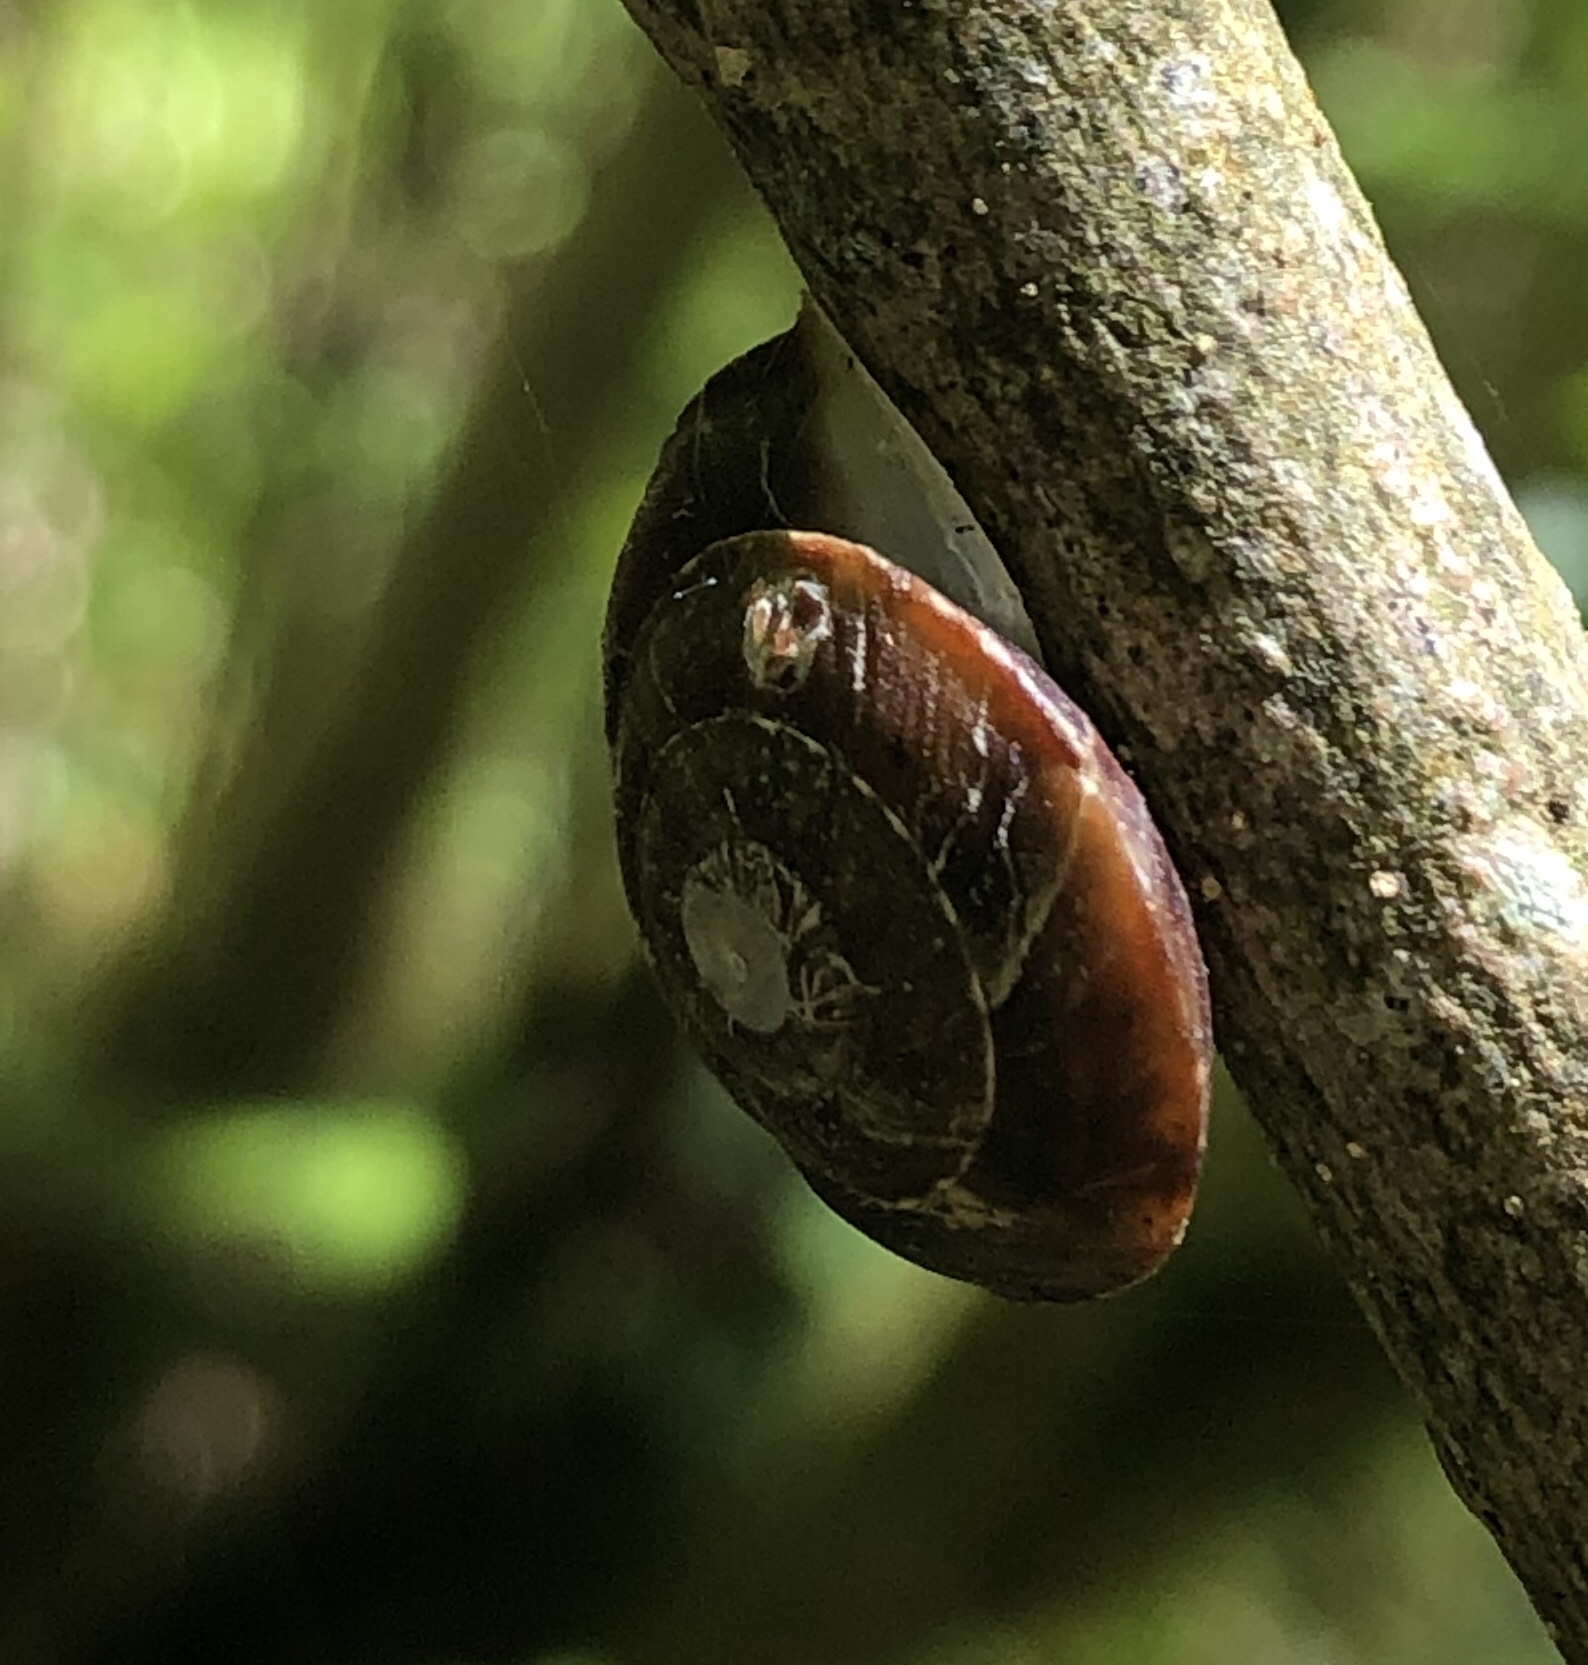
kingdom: Animalia
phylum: Mollusca
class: Gastropoda
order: Stylommatophora
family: Helicidae
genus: Helicigona
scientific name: Helicigona lapicida
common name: Lapidary snail
